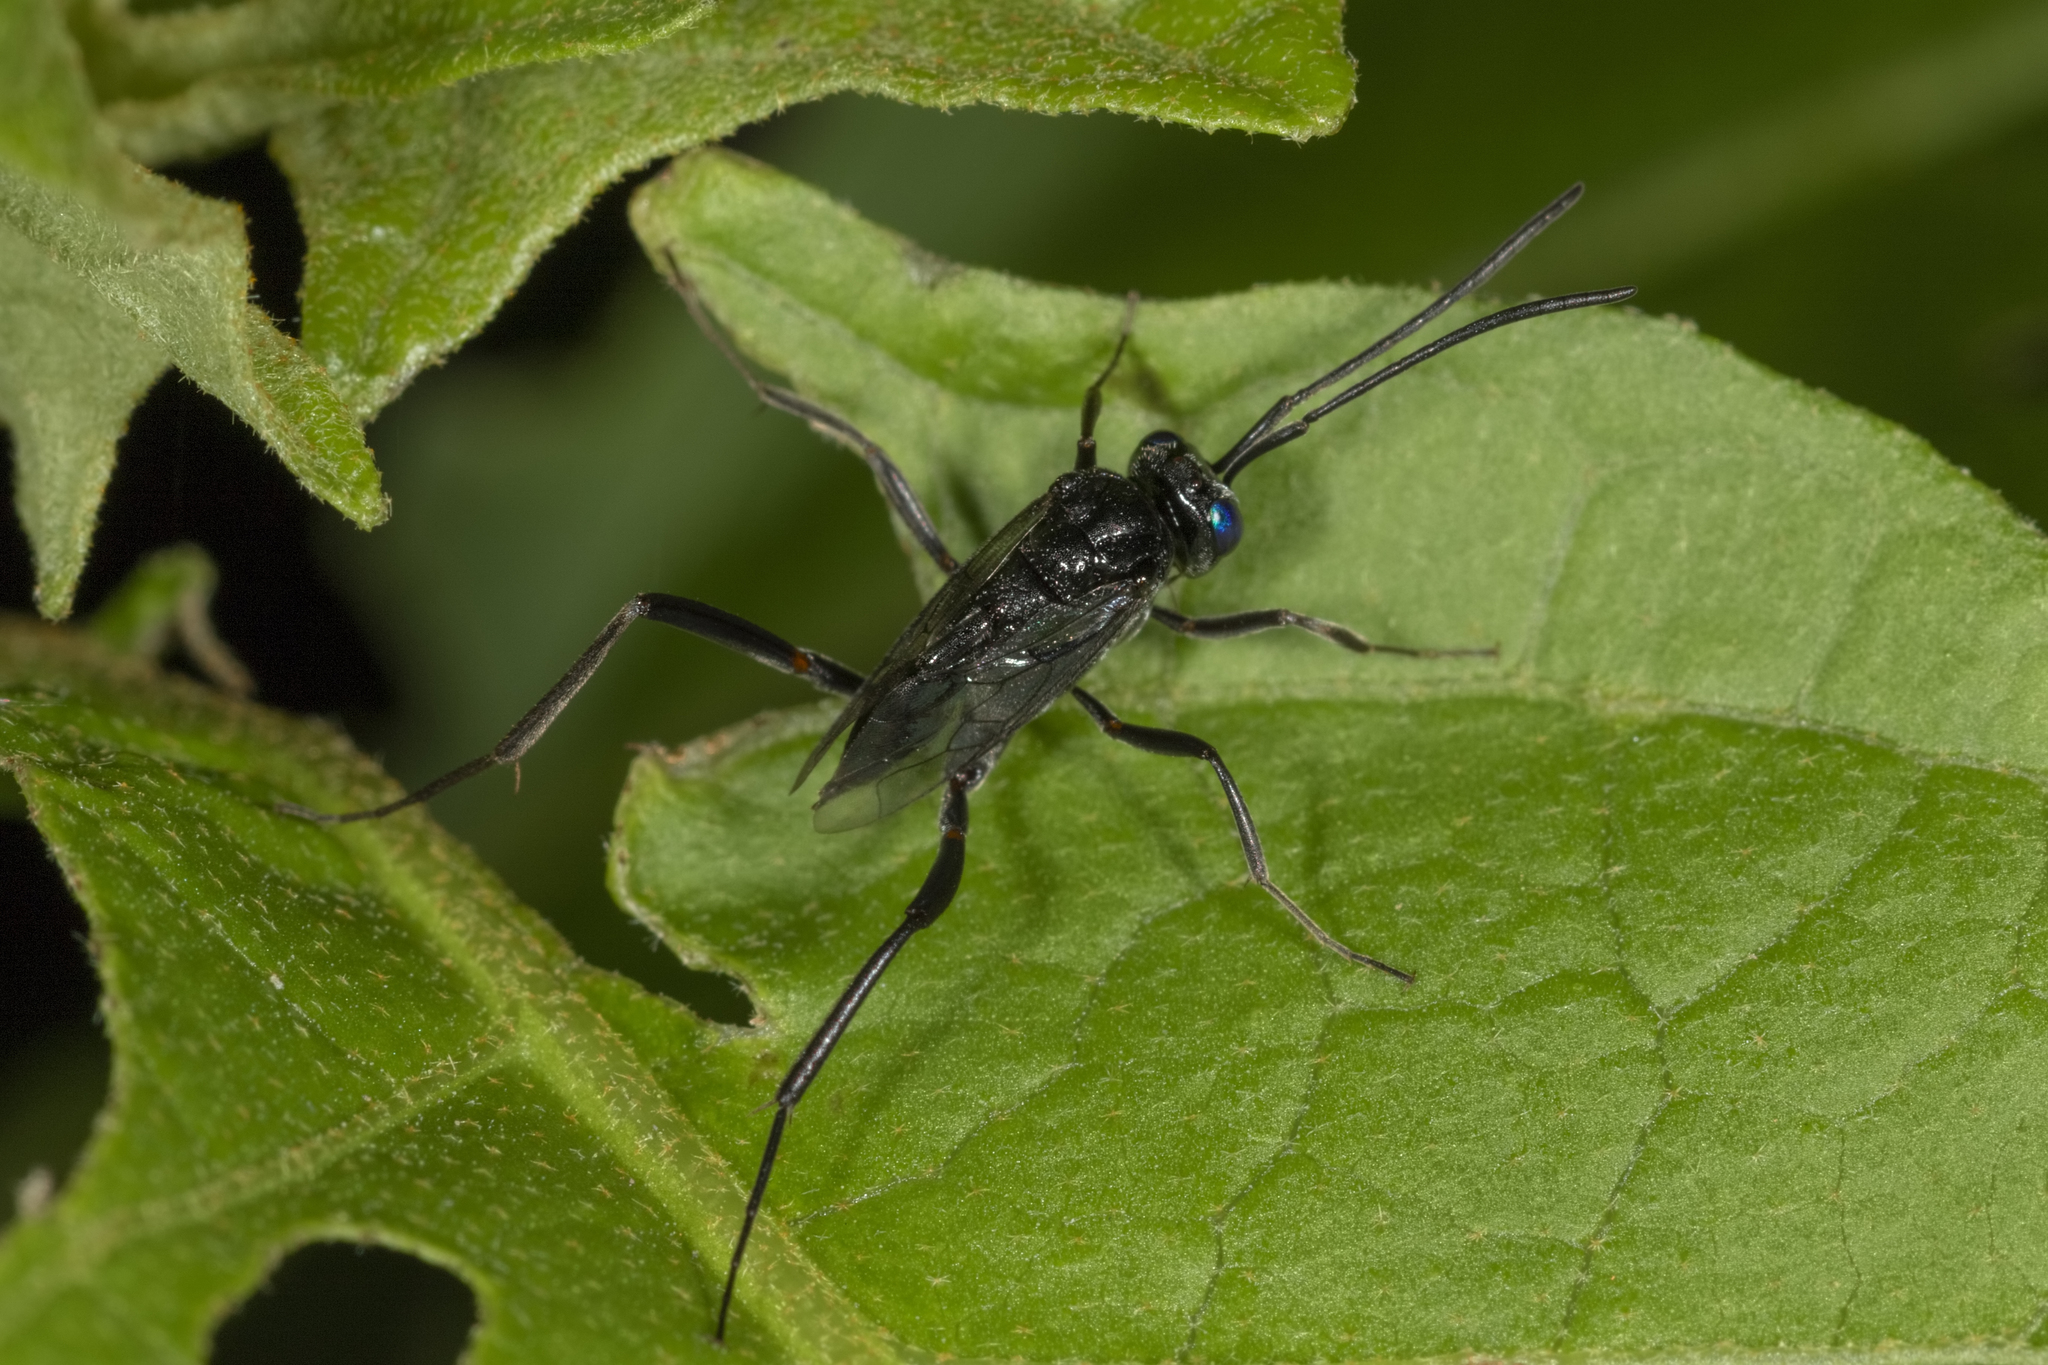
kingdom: Animalia
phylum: Arthropoda
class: Insecta
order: Hymenoptera
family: Evaniidae
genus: Evania
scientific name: Evania appendigaster
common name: Ensign wasp
